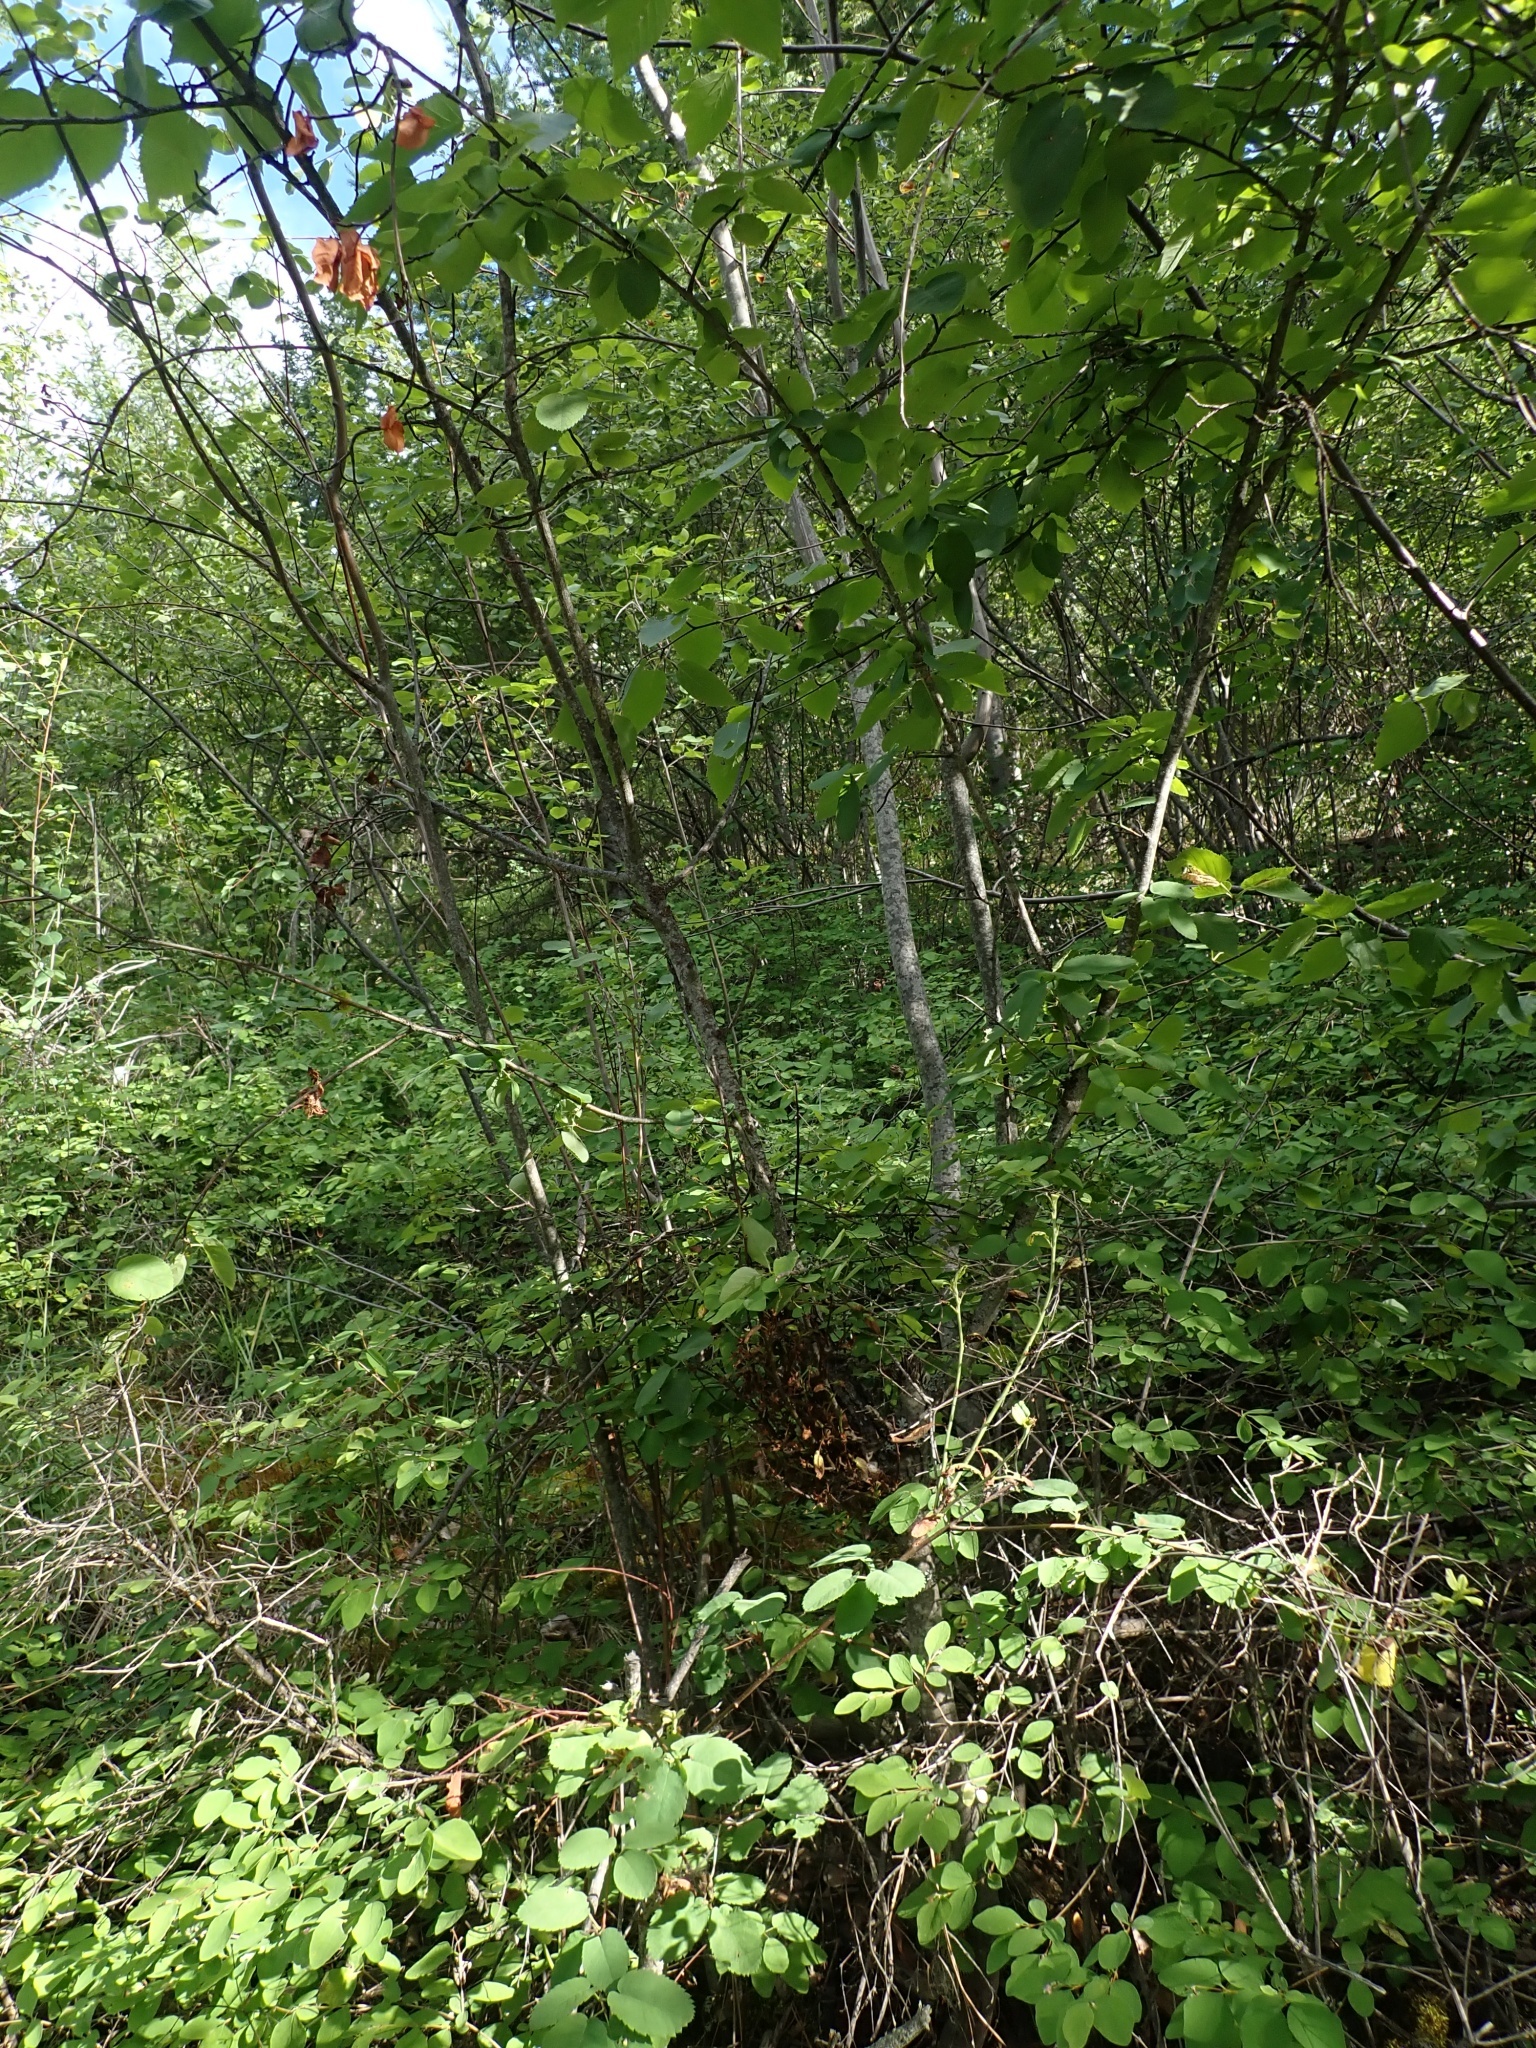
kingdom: Plantae
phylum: Tracheophyta
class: Magnoliopsida
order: Rosales
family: Rosaceae
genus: Amelanchier
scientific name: Amelanchier alnifolia
